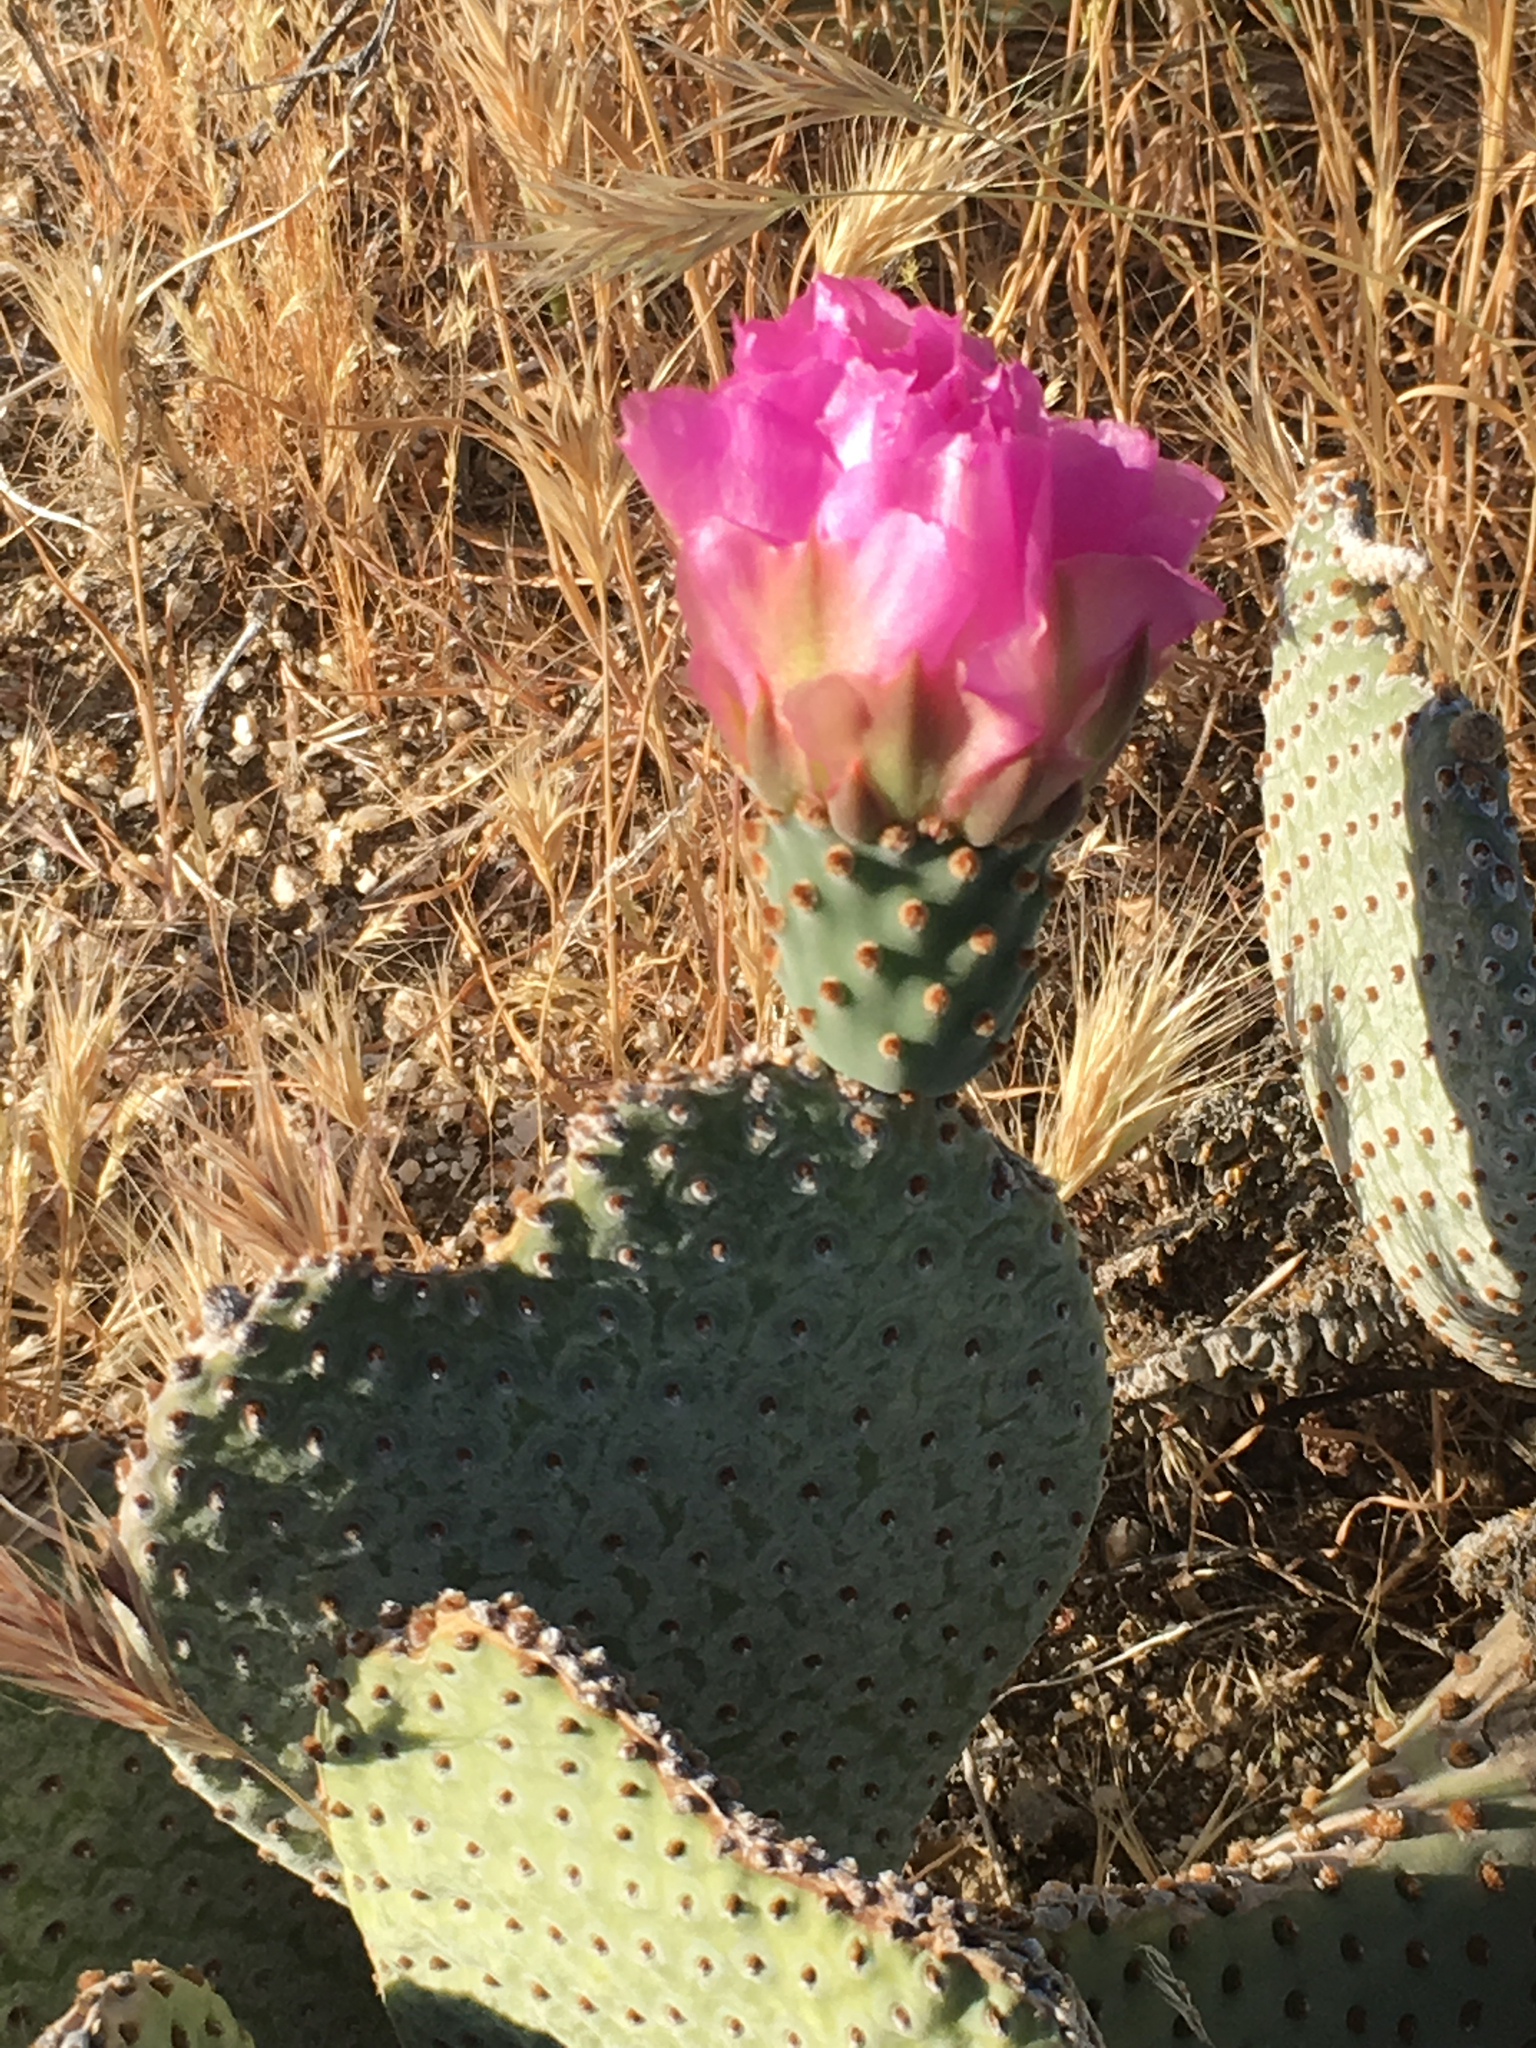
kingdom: Plantae
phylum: Tracheophyta
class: Magnoliopsida
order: Caryophyllales
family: Cactaceae
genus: Opuntia
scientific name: Opuntia basilaris
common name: Beavertail prickly-pear
